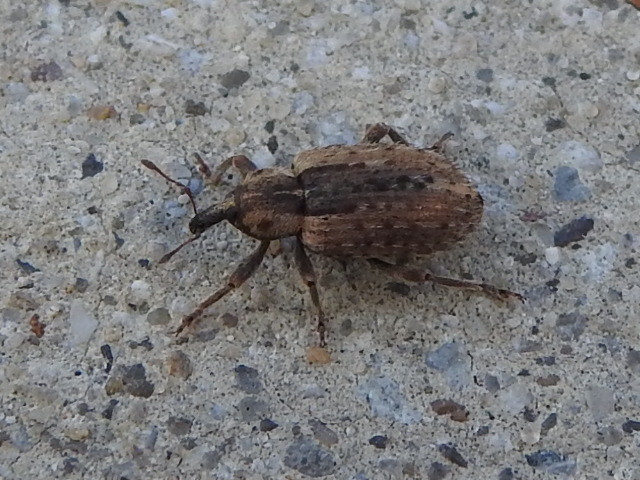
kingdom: Animalia
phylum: Arthropoda
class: Insecta
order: Coleoptera
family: Curculionidae
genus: Hypera
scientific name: Hypera postica
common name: Weevil
